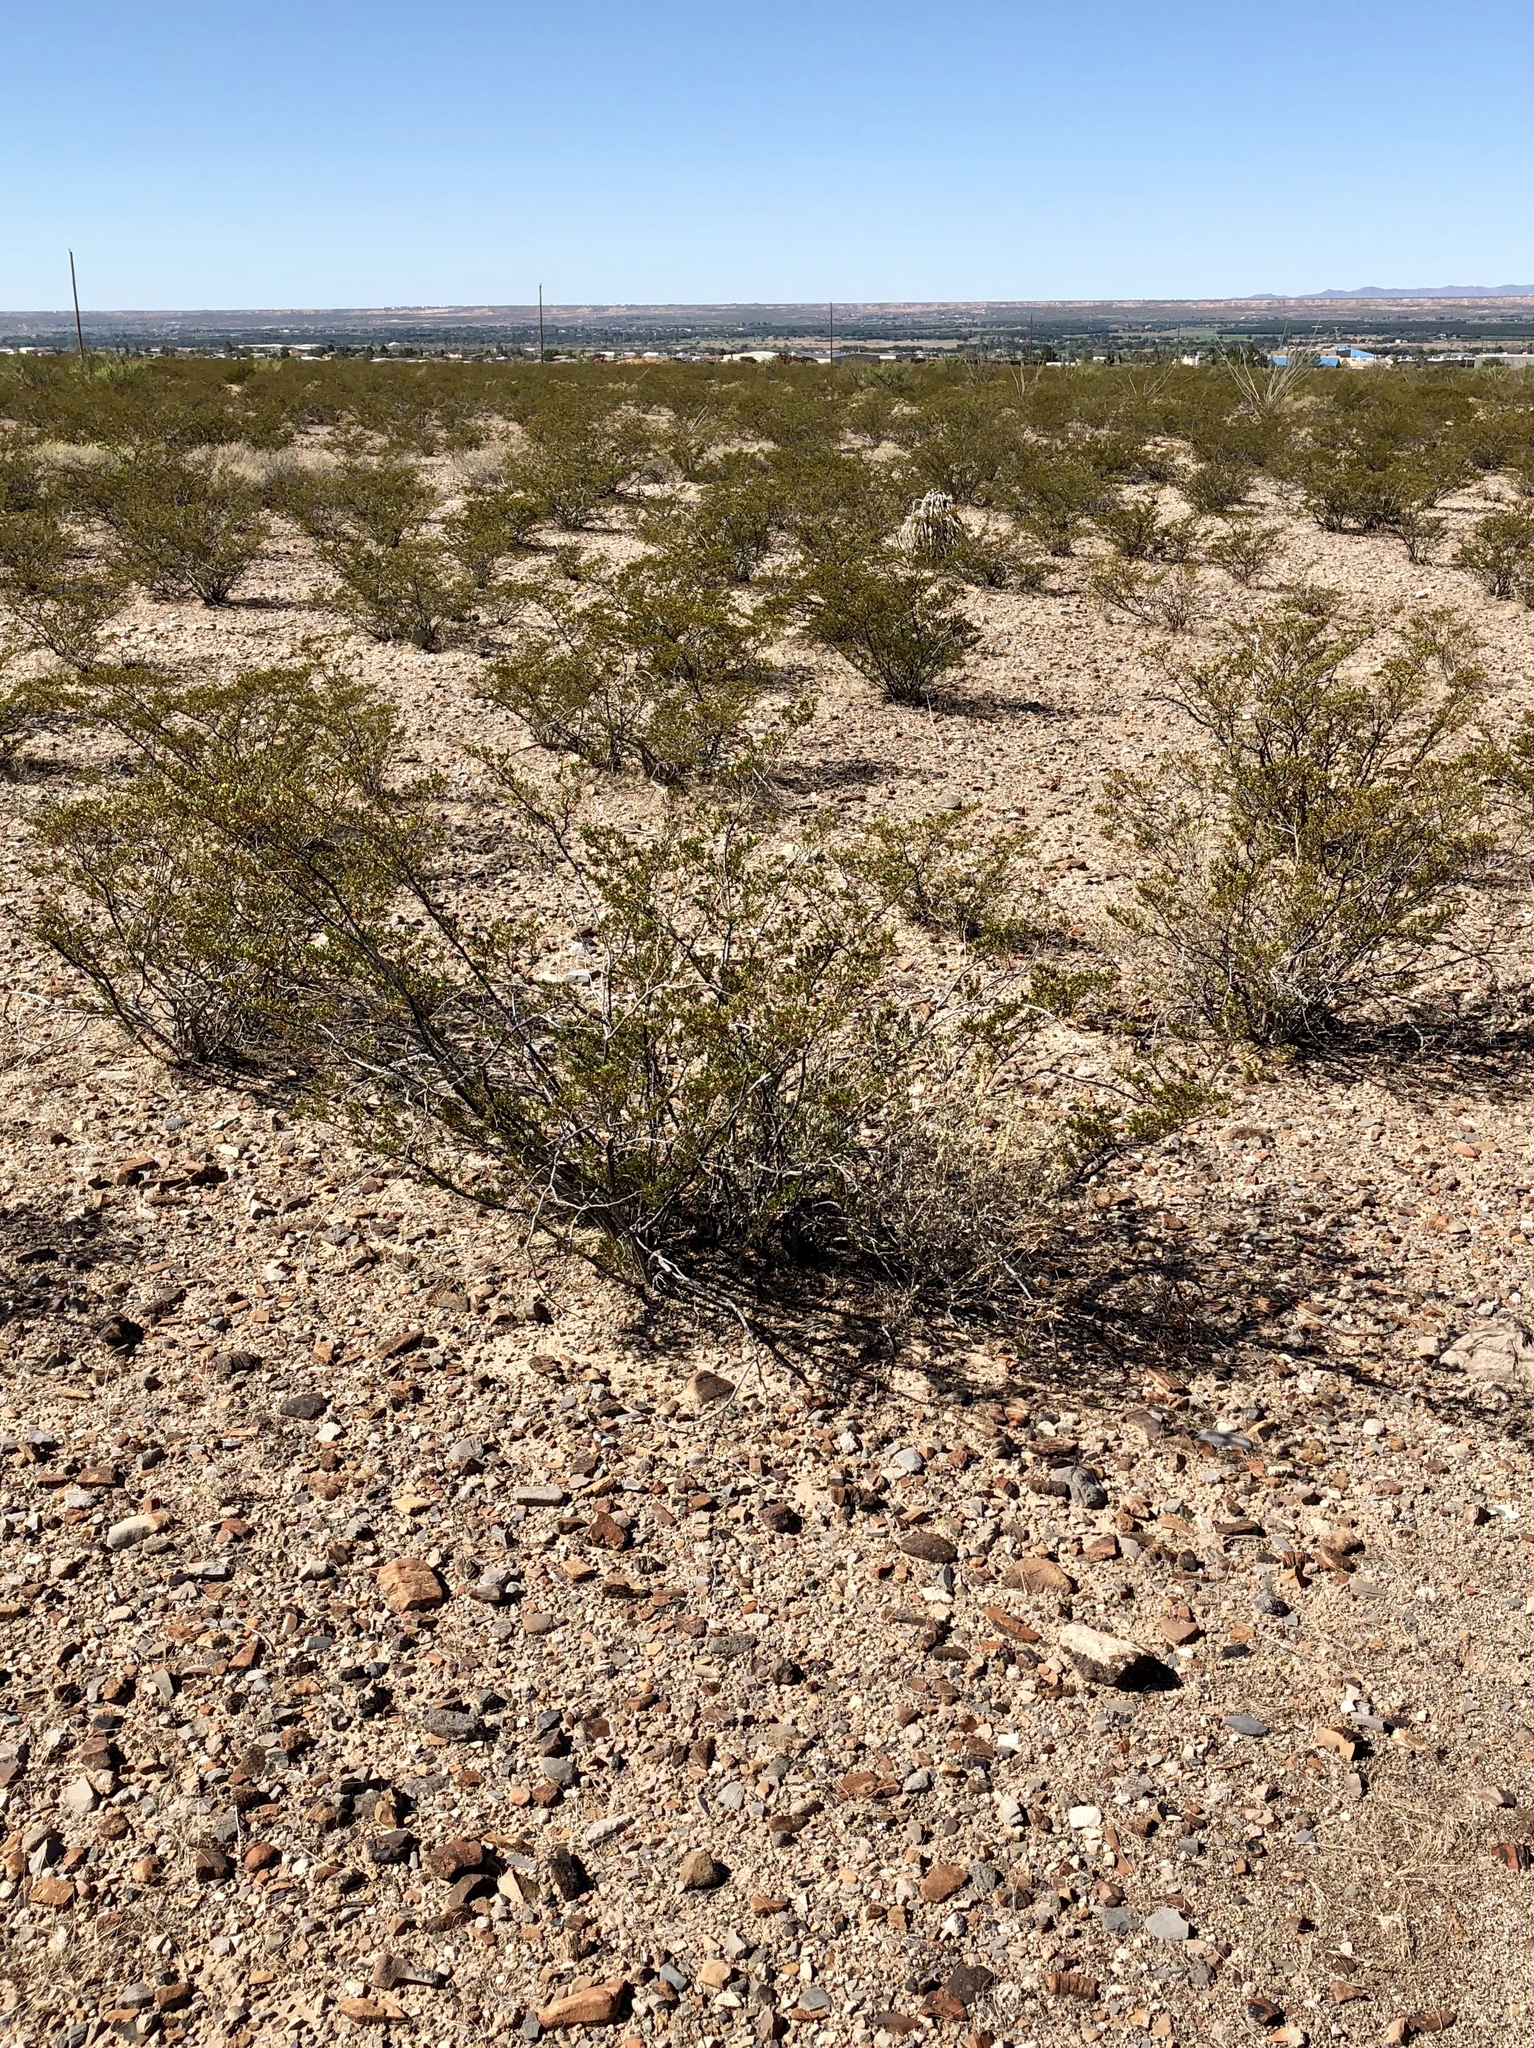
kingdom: Plantae
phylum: Tracheophyta
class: Magnoliopsida
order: Zygophyllales
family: Zygophyllaceae
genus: Larrea
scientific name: Larrea tridentata
